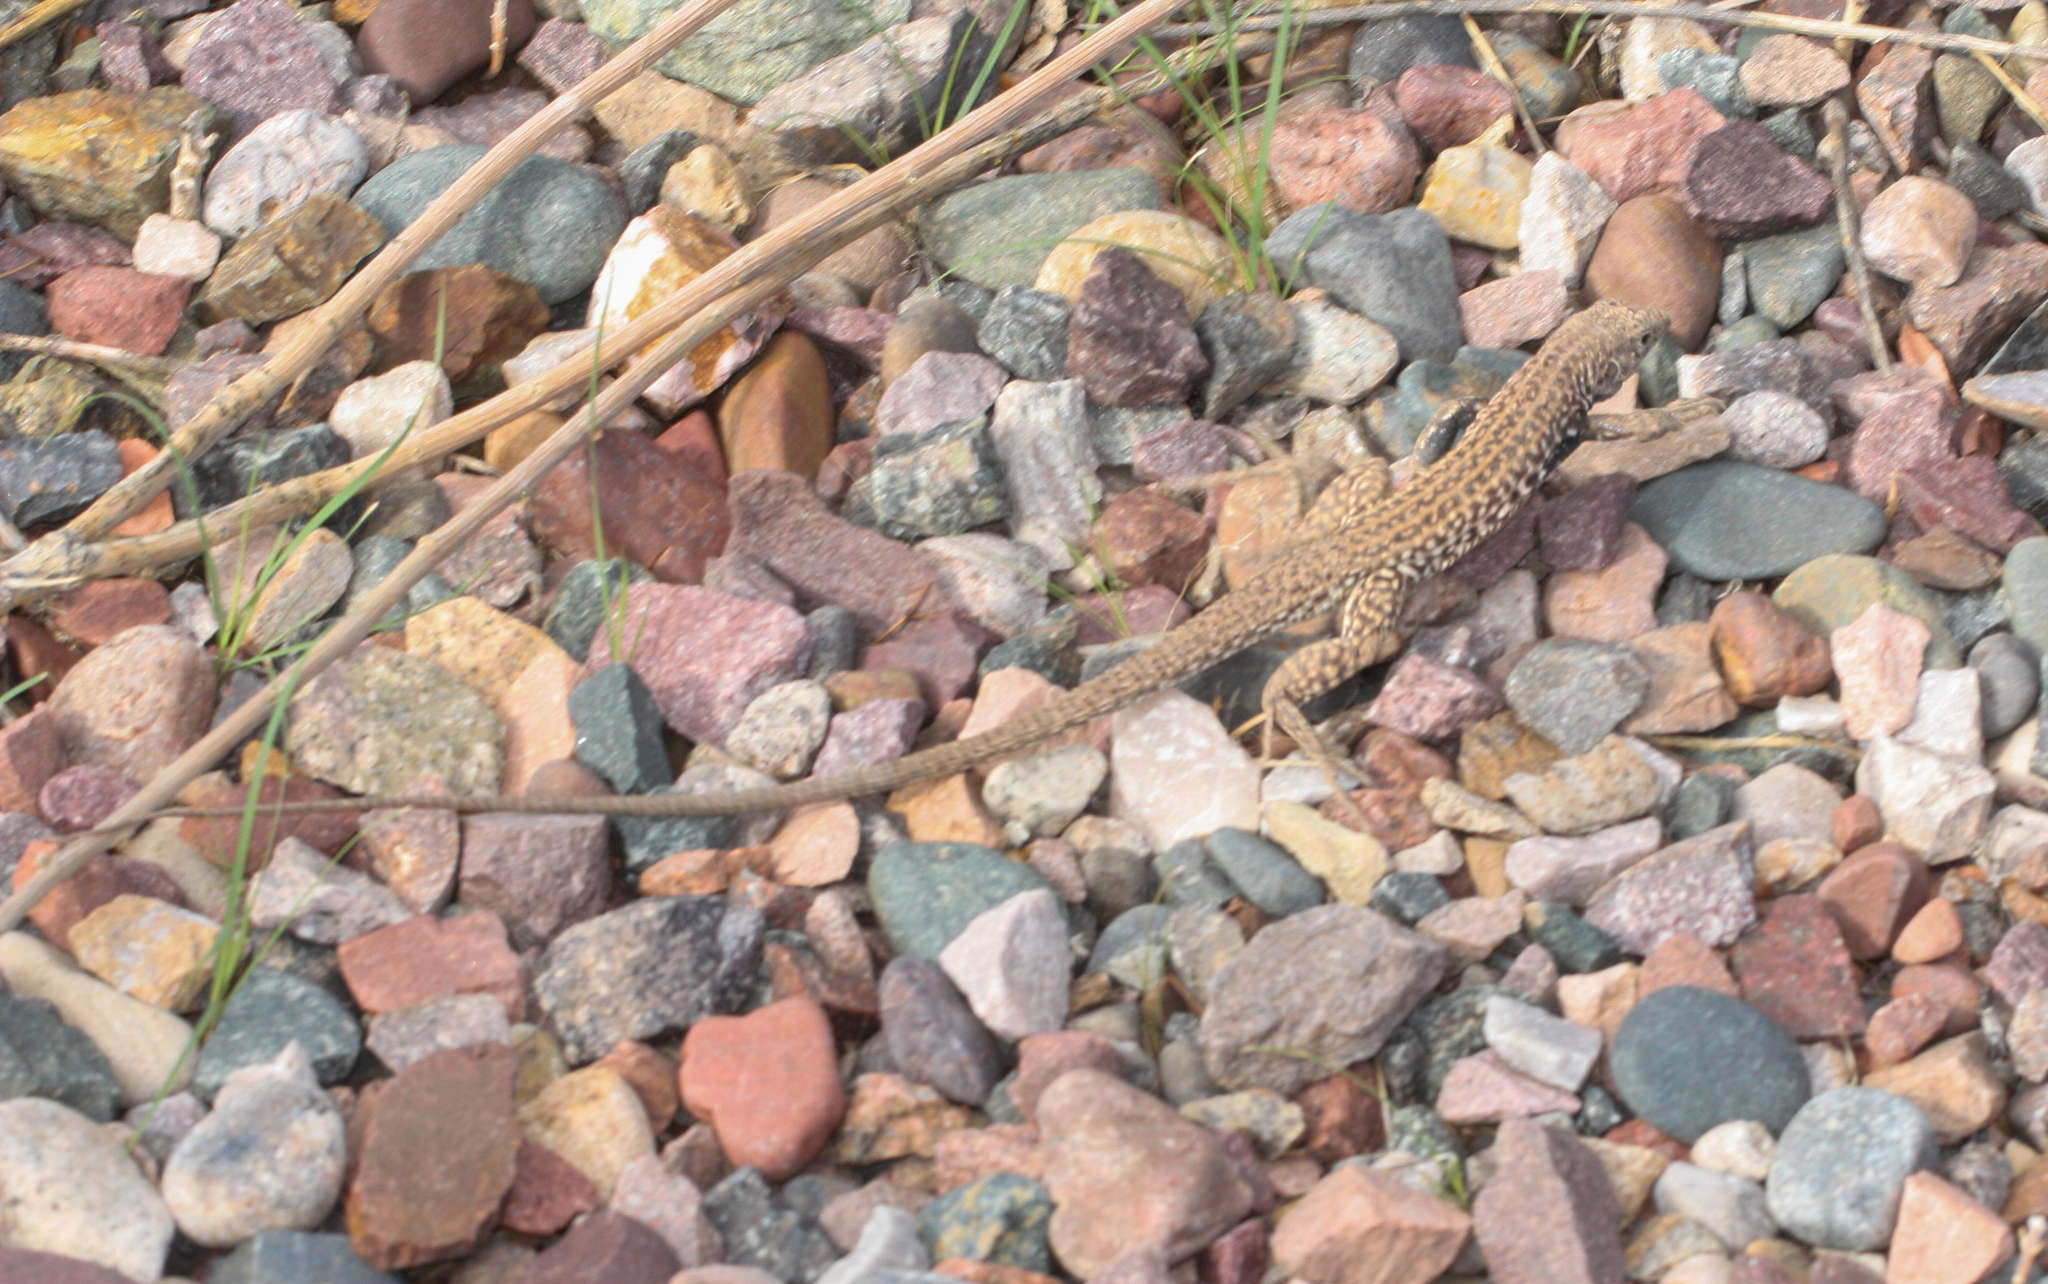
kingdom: Animalia
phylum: Chordata
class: Squamata
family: Teiidae
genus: Aspidoscelis
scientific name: Aspidoscelis tigris
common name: Tiger whiptail
